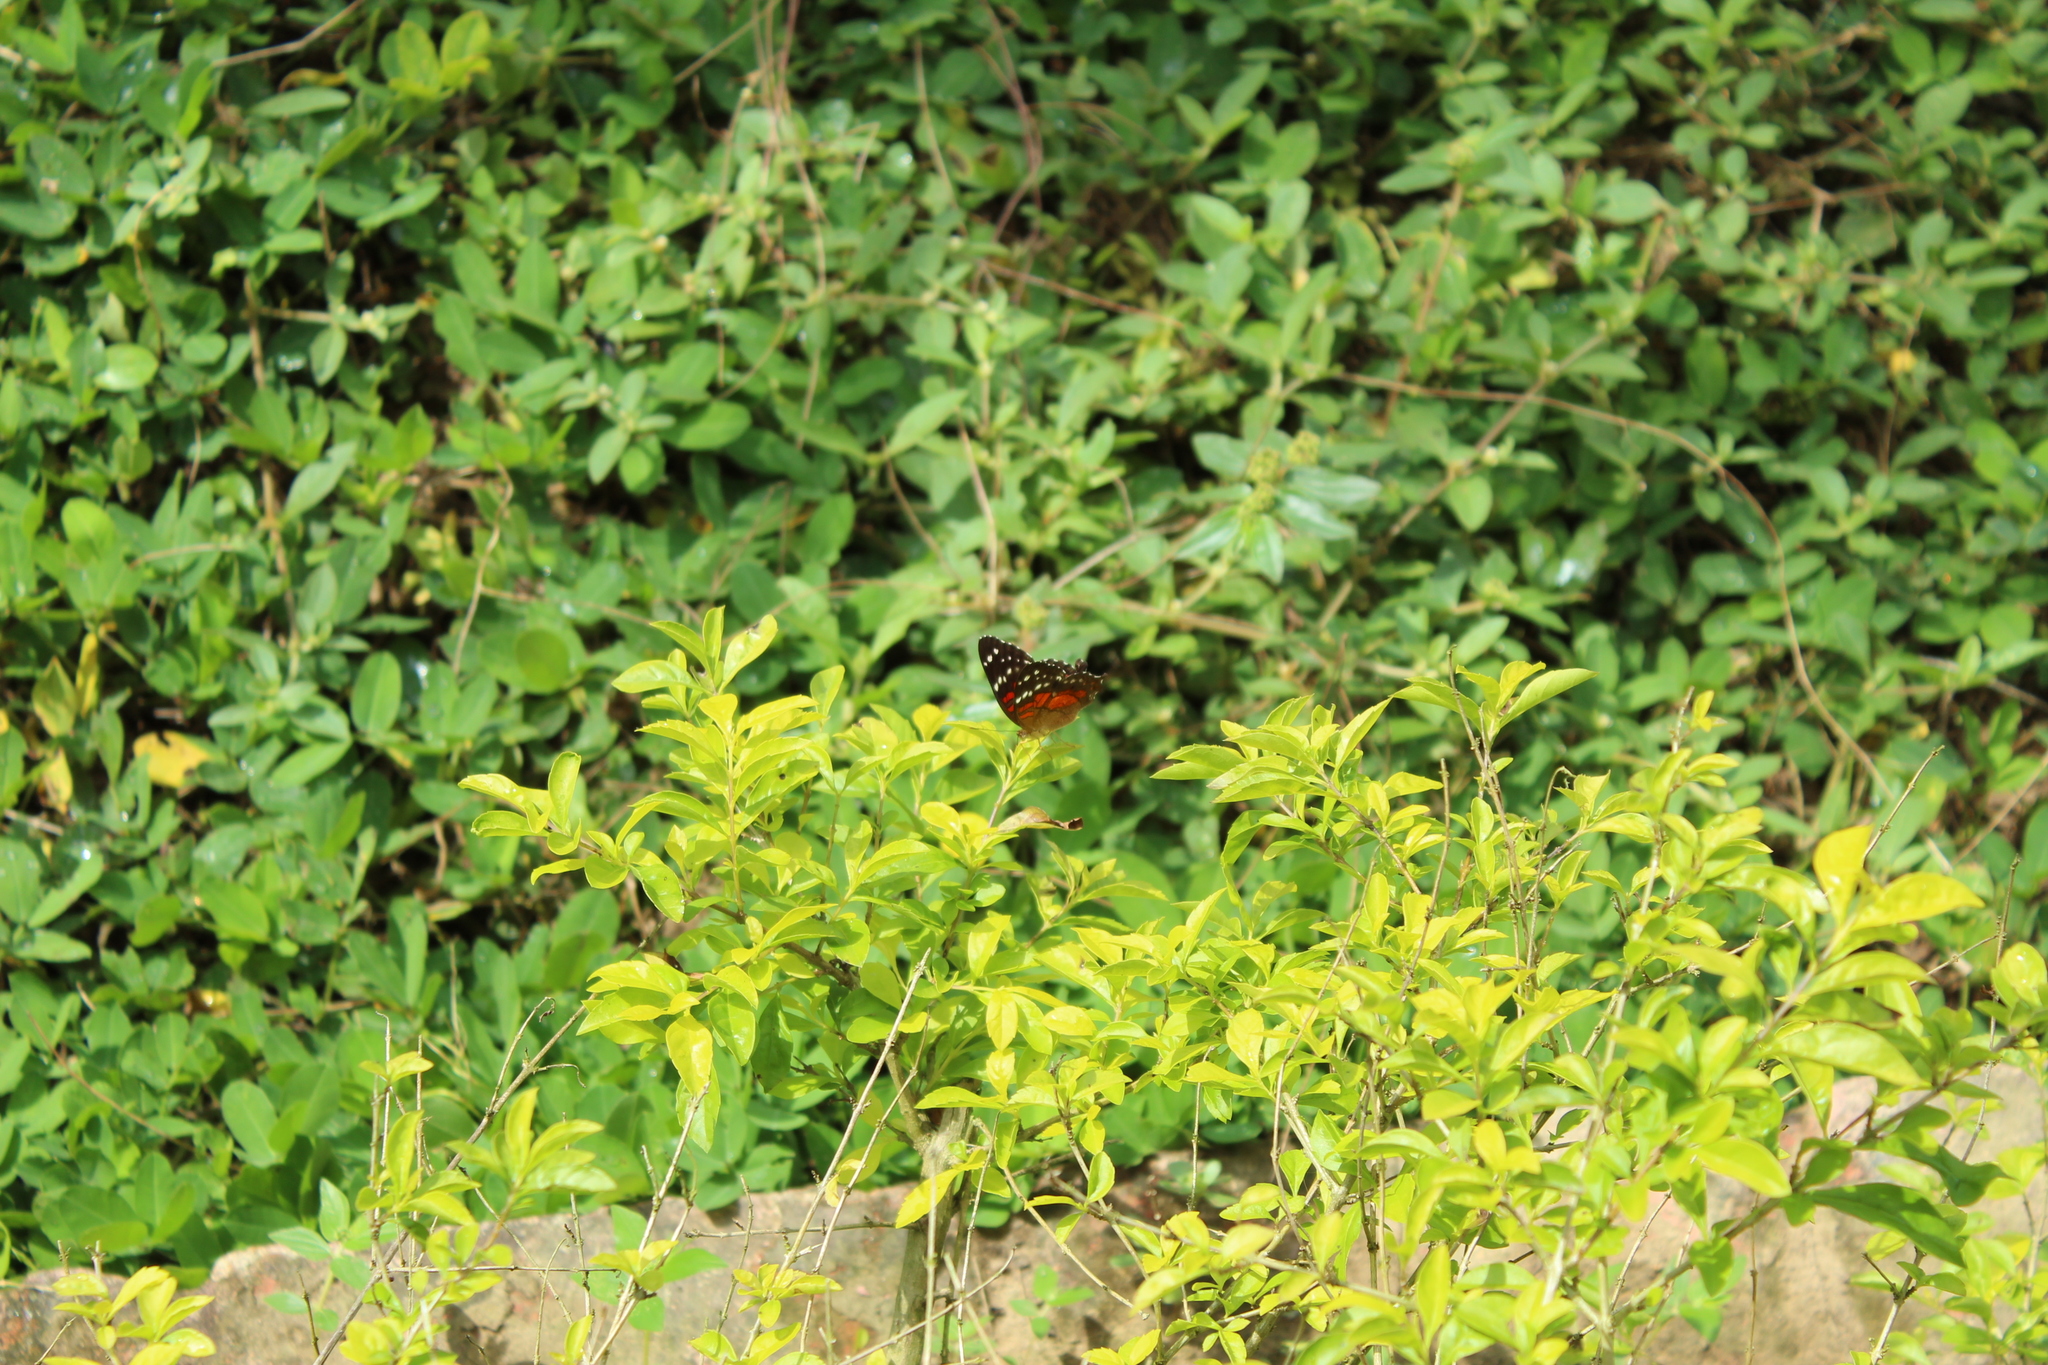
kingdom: Animalia
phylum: Arthropoda
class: Insecta
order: Lepidoptera
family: Nymphalidae
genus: Anartia
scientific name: Anartia amathea
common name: Red peacock
